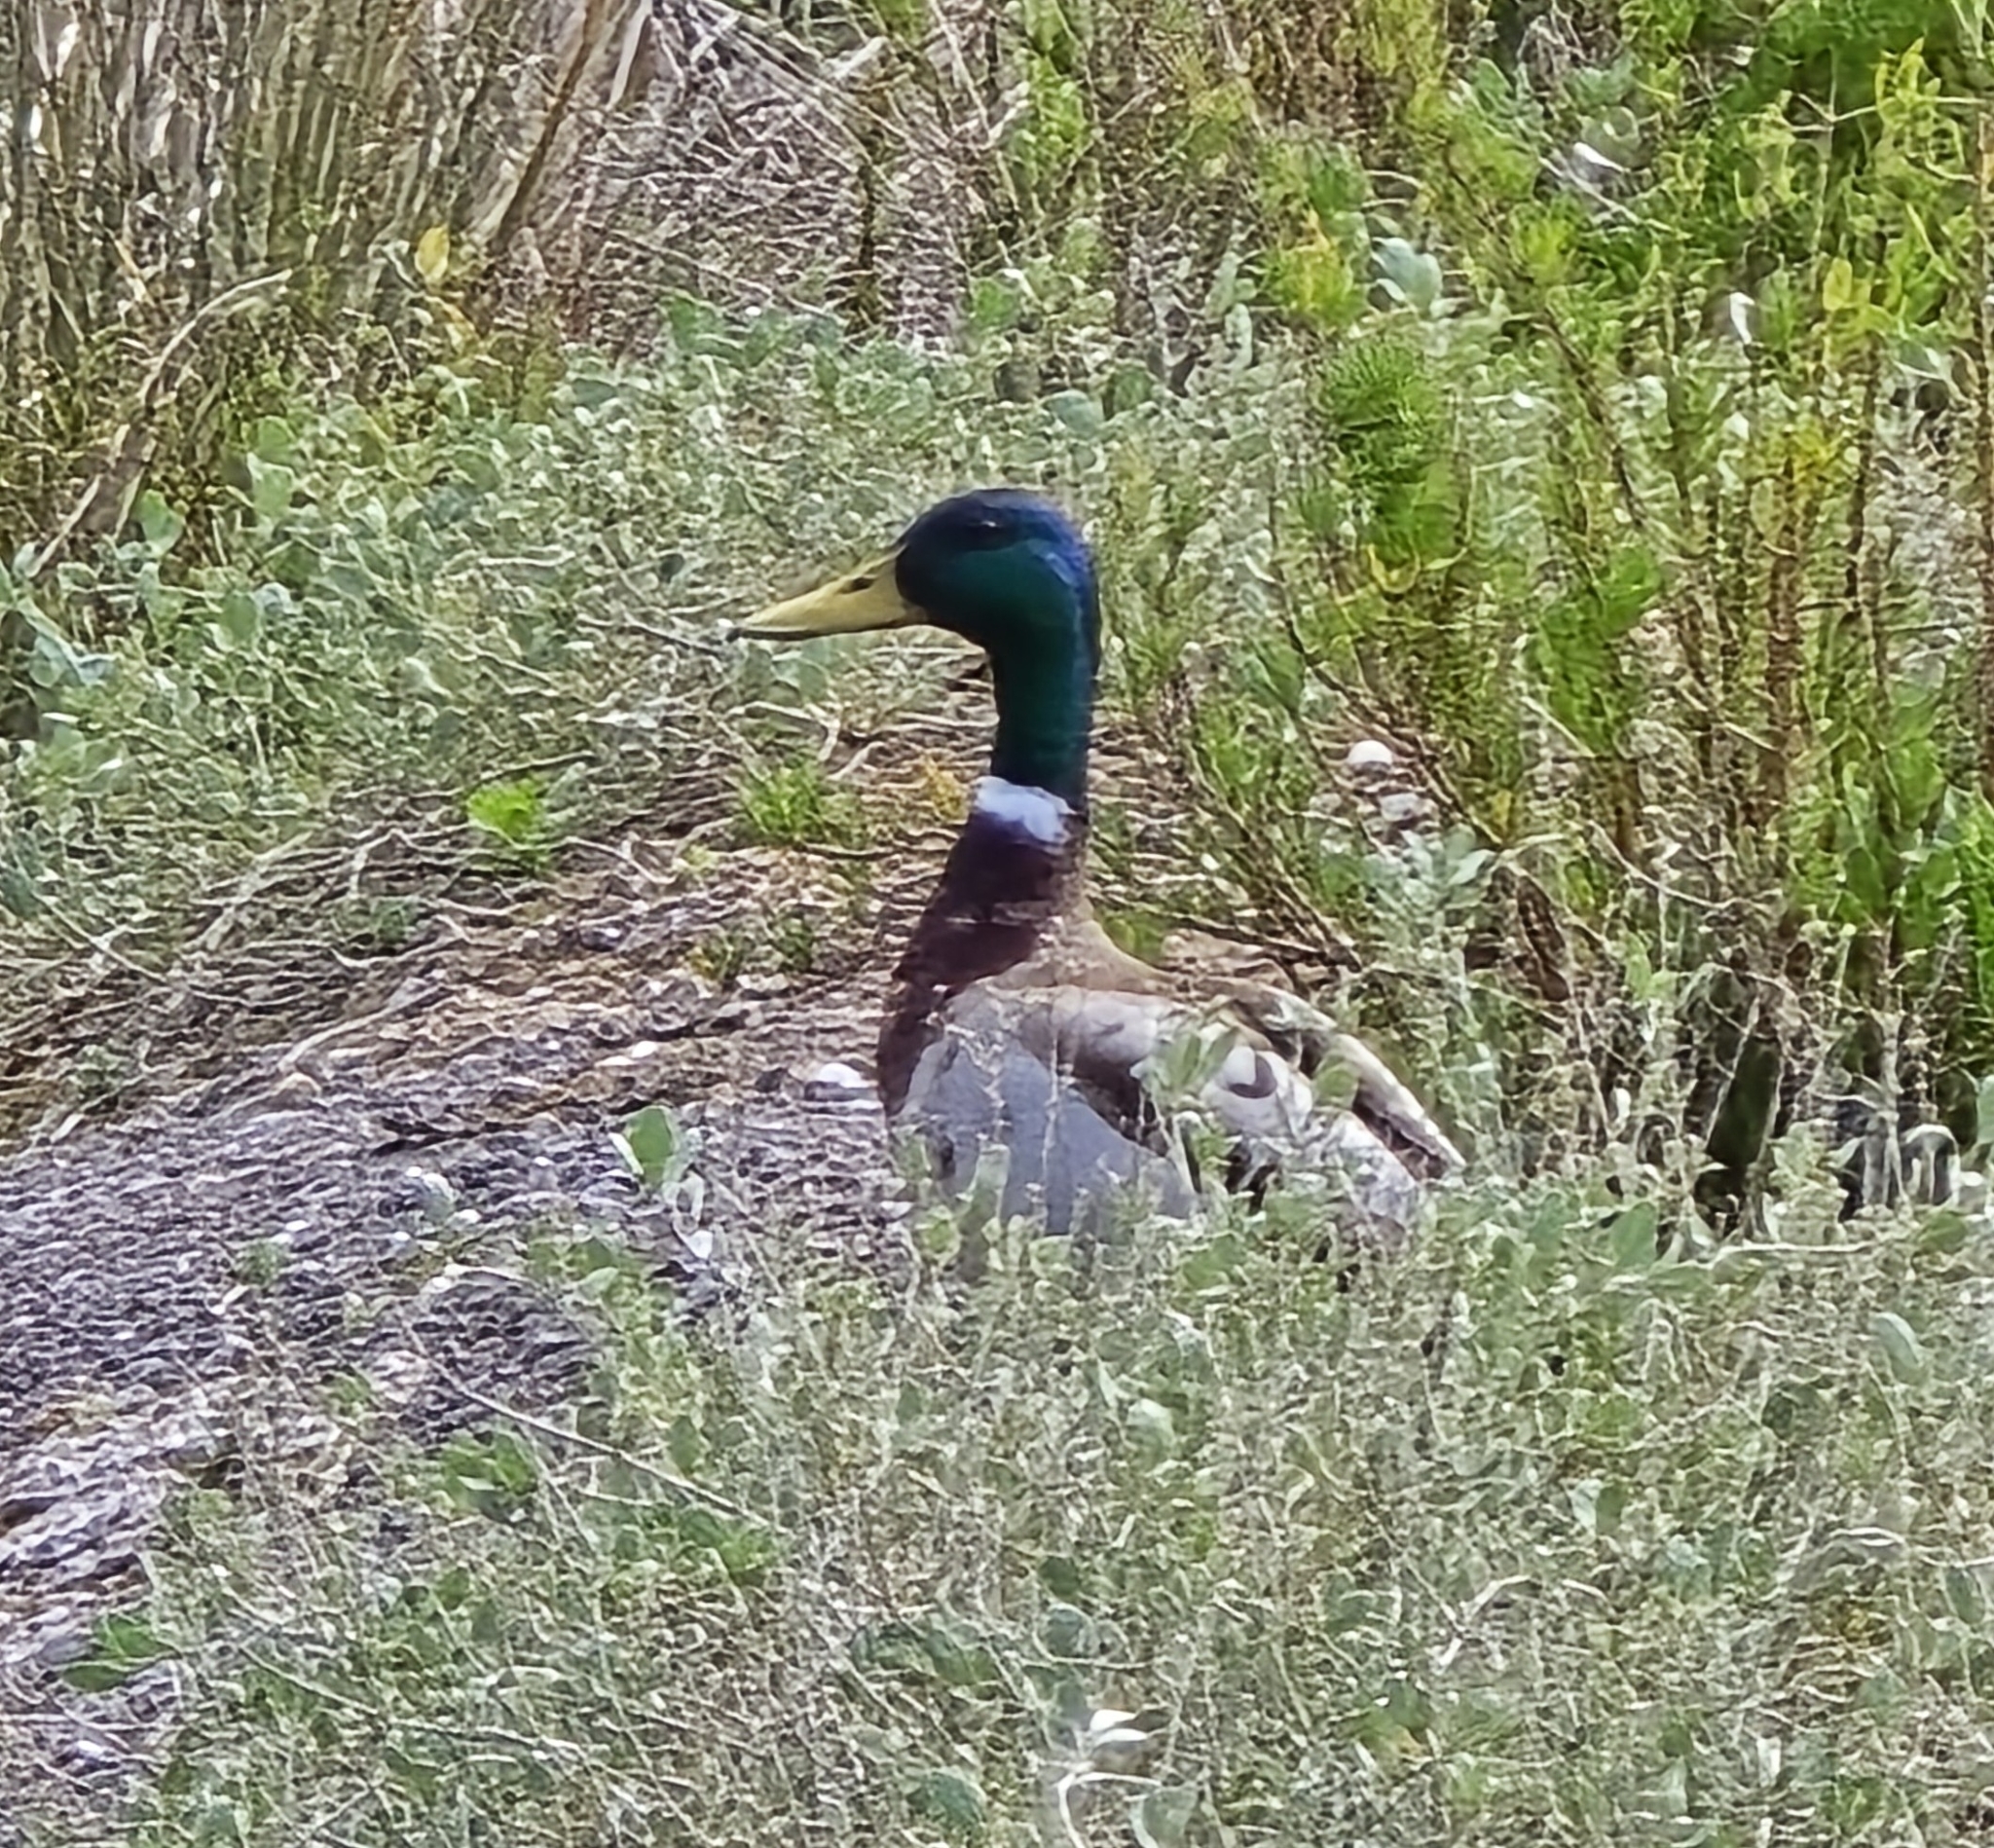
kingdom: Animalia
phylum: Chordata
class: Aves
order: Anseriformes
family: Anatidae
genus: Anas
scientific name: Anas platyrhynchos
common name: Mallard
